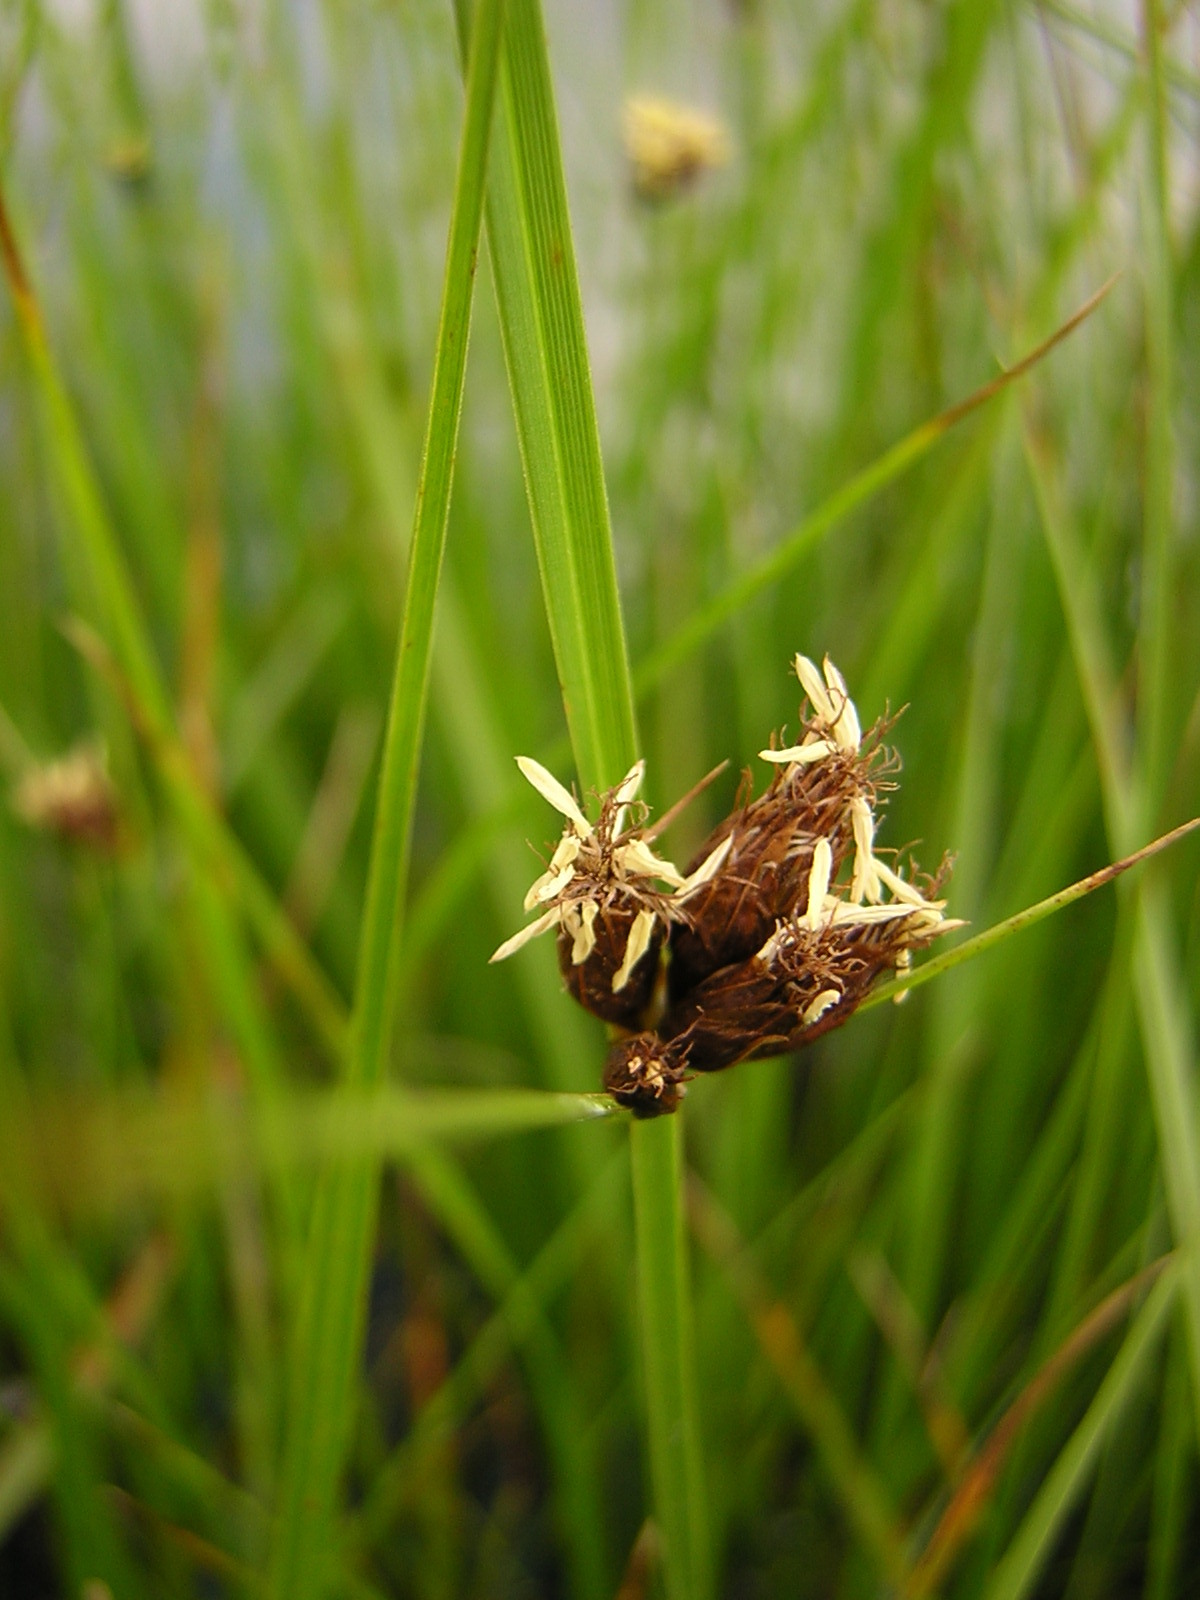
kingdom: Plantae
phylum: Tracheophyta
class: Liliopsida
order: Poales
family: Cyperaceae
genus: Bolboschoenus
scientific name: Bolboschoenus maritimus
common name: Sea club-rush
